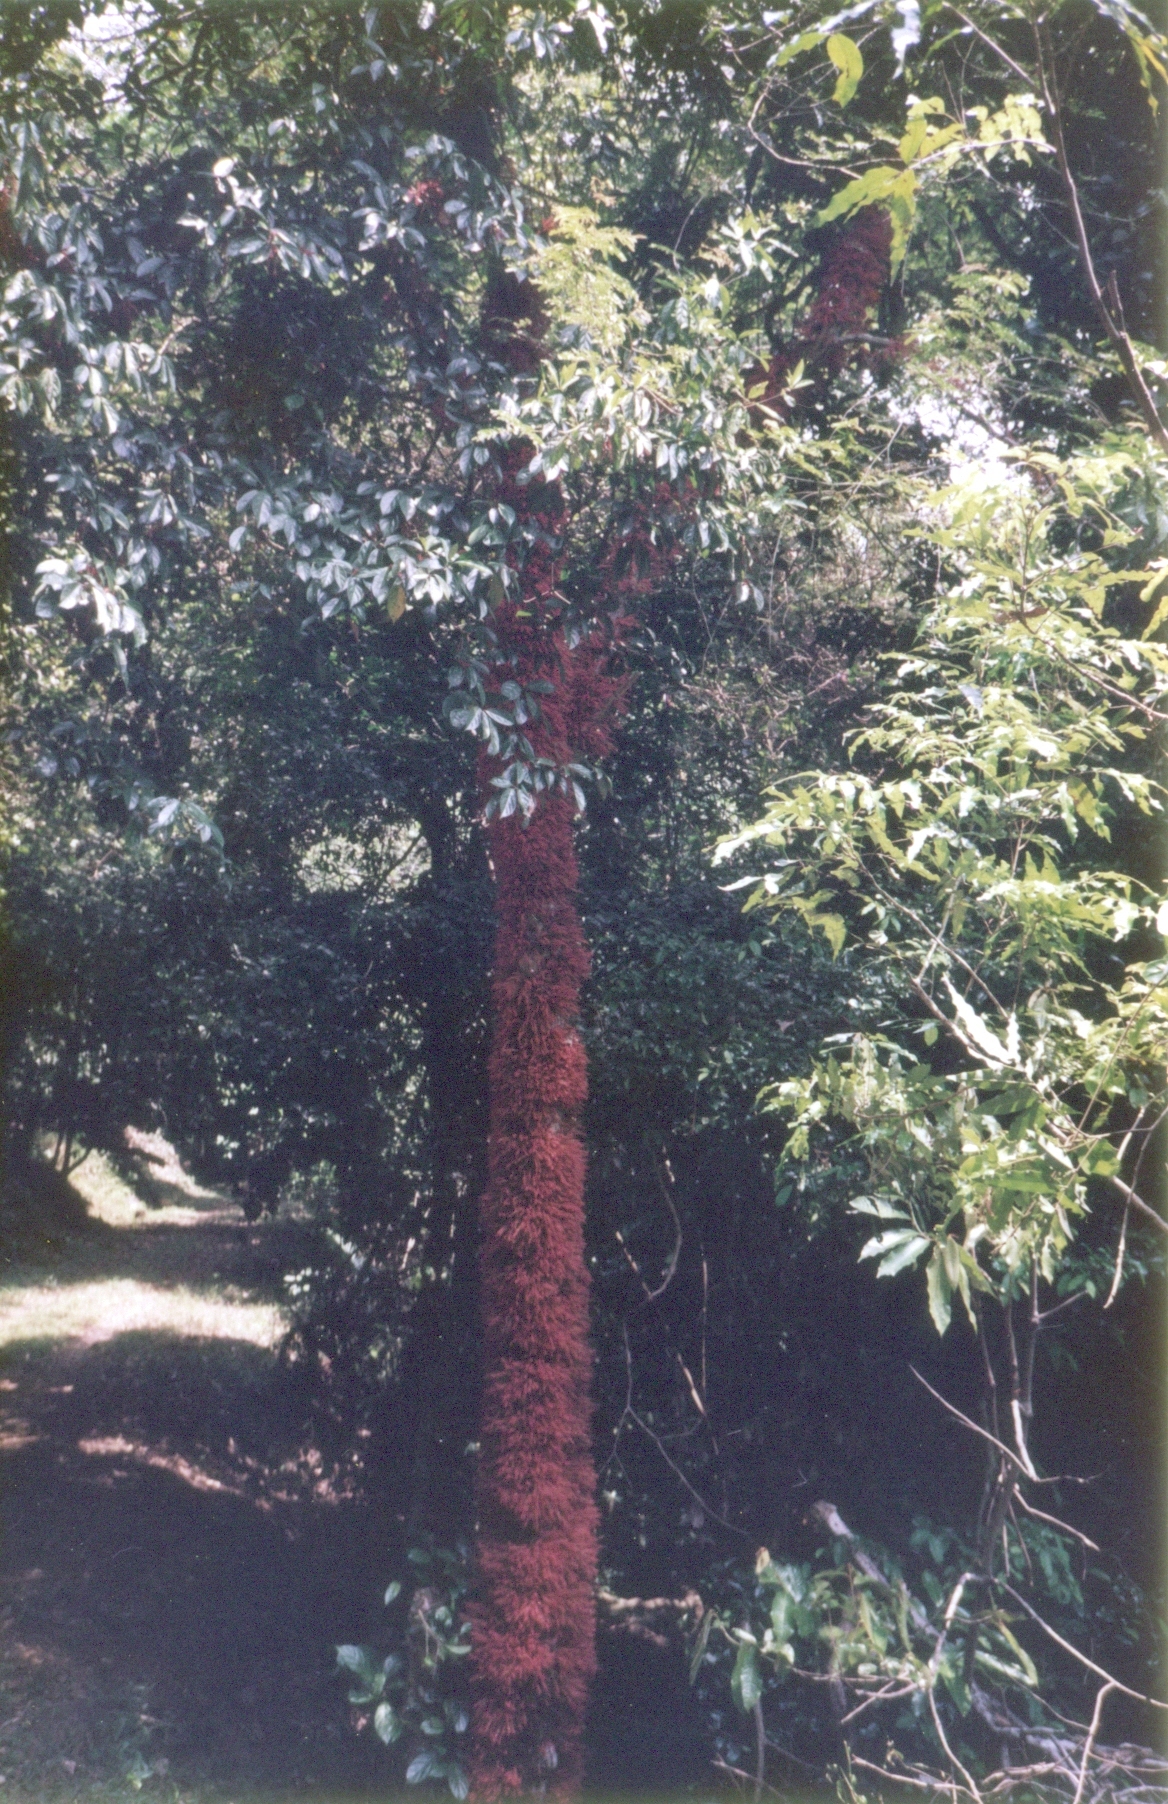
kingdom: Plantae
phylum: Tracheophyta
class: Magnoliopsida
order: Malpighiales
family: Phyllanthaceae
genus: Baccaurea
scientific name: Baccaurea courtallensis
